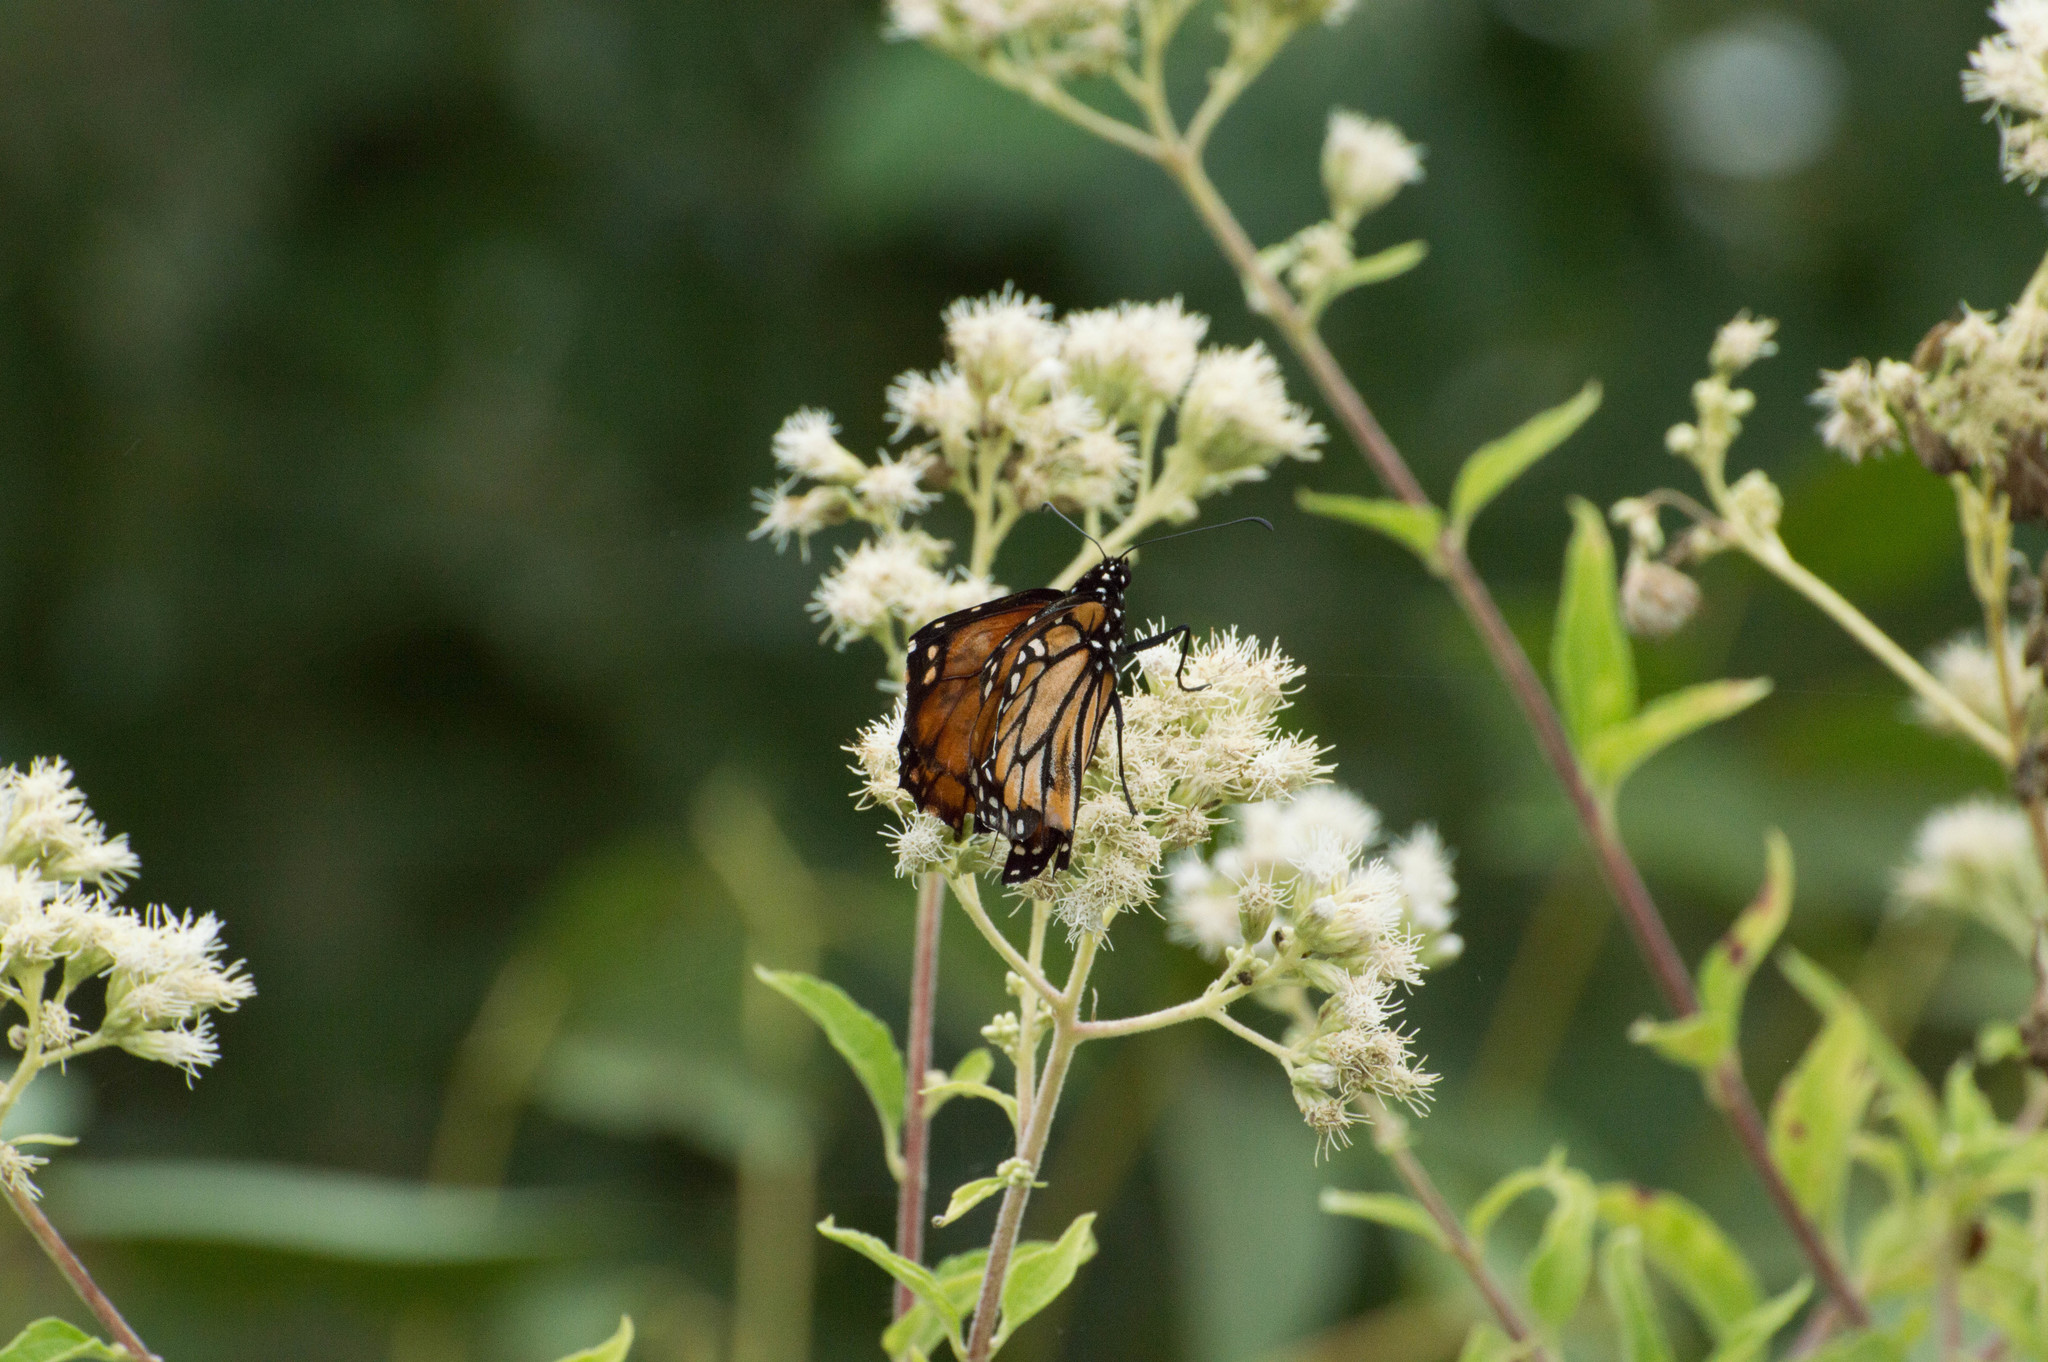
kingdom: Animalia
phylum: Arthropoda
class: Insecta
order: Lepidoptera
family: Nymphalidae
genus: Danaus
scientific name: Danaus erippus
